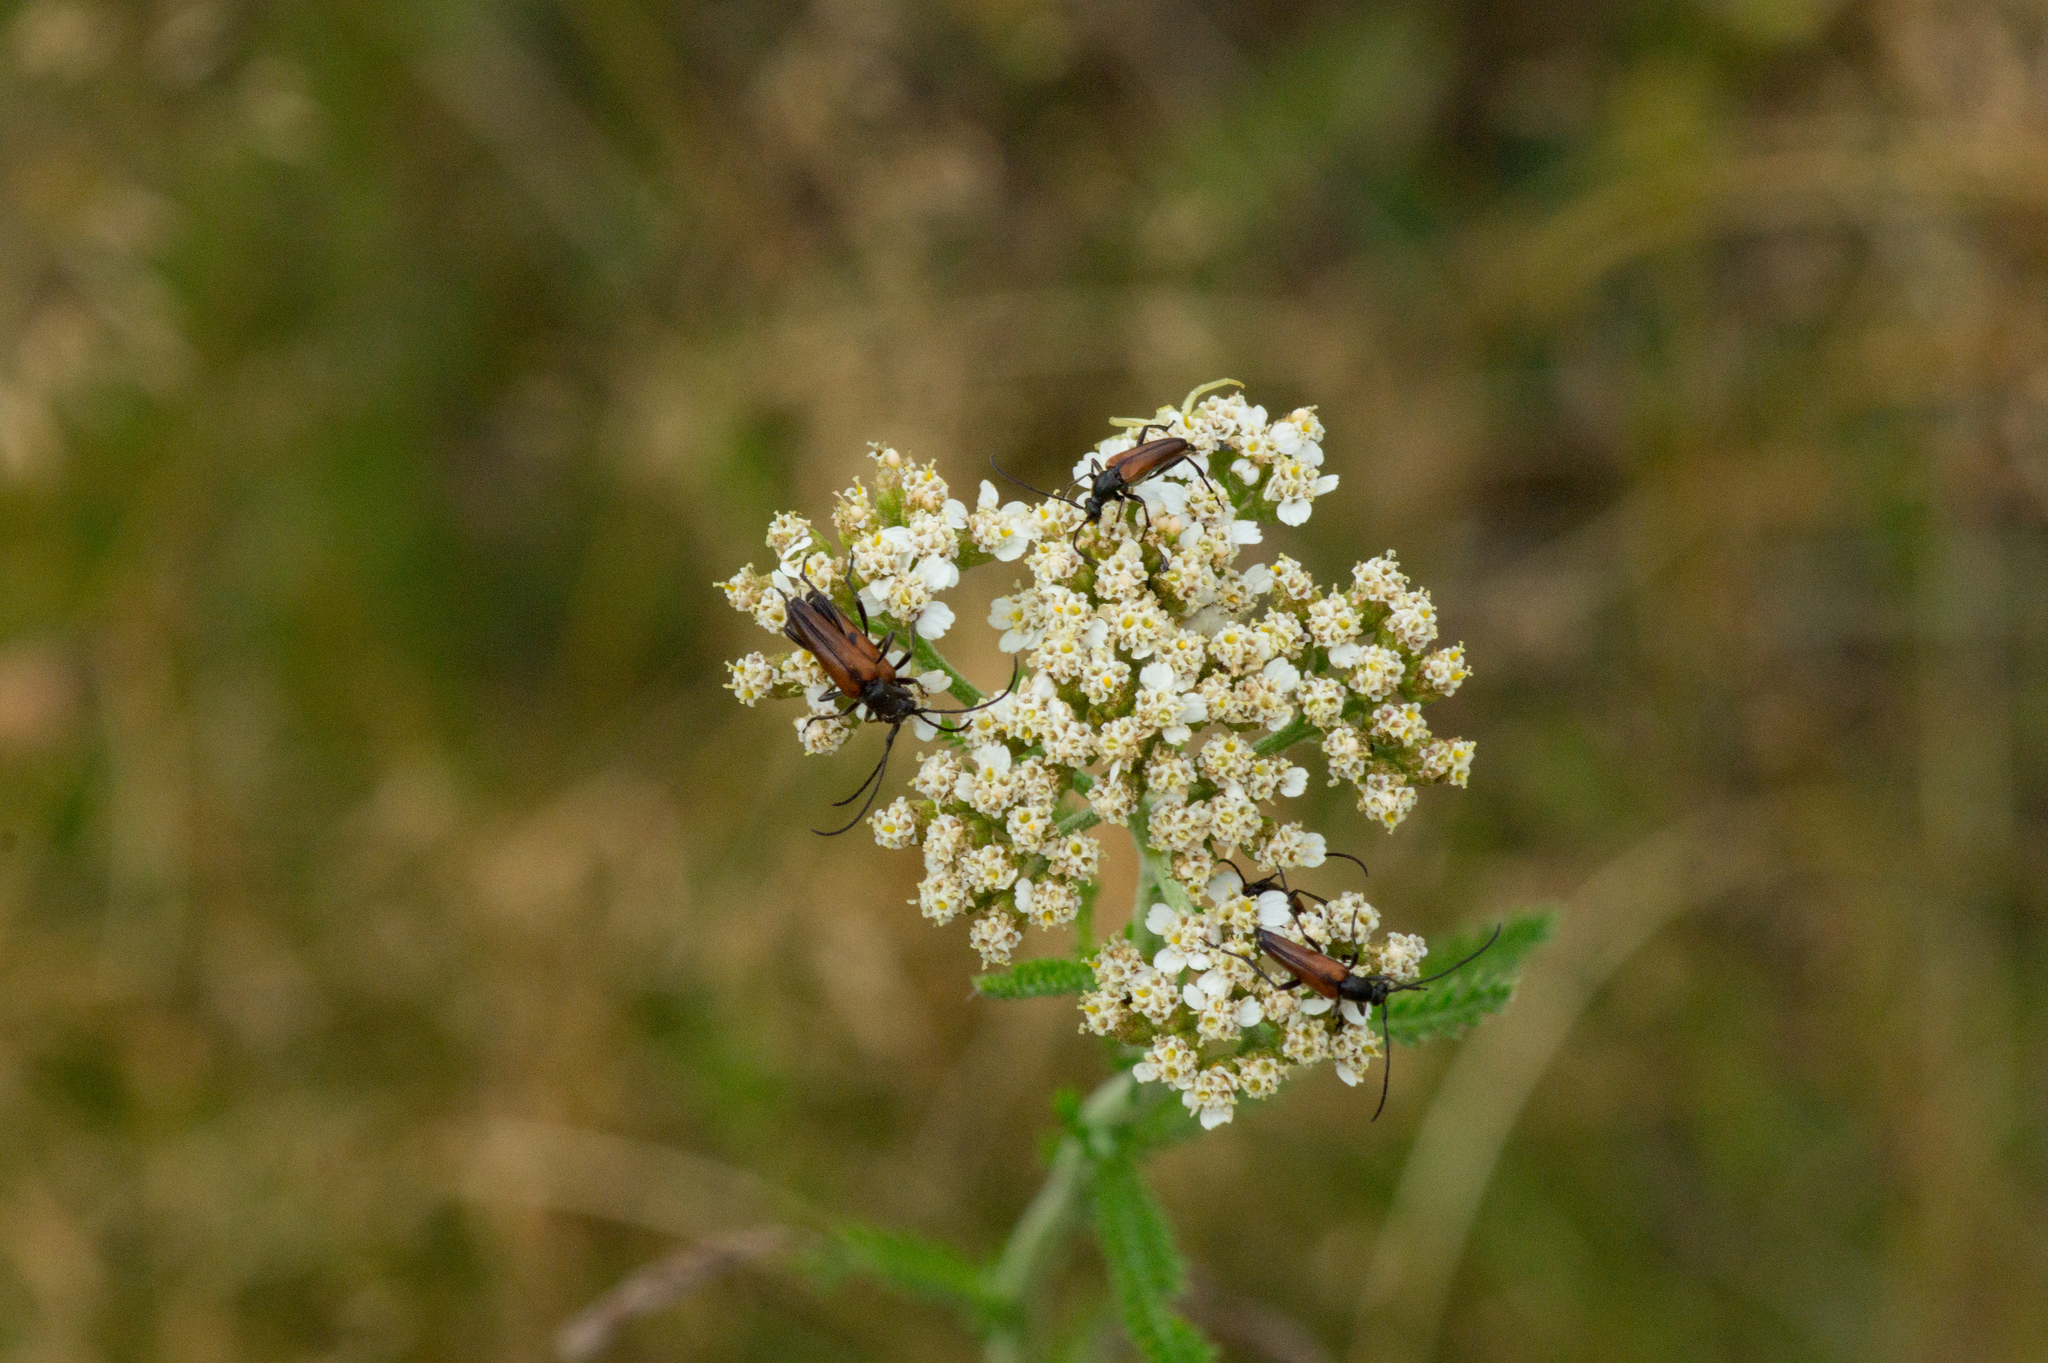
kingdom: Animalia
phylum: Arthropoda
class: Insecta
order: Coleoptera
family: Cerambycidae
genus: Stenurella
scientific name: Stenurella melanura
